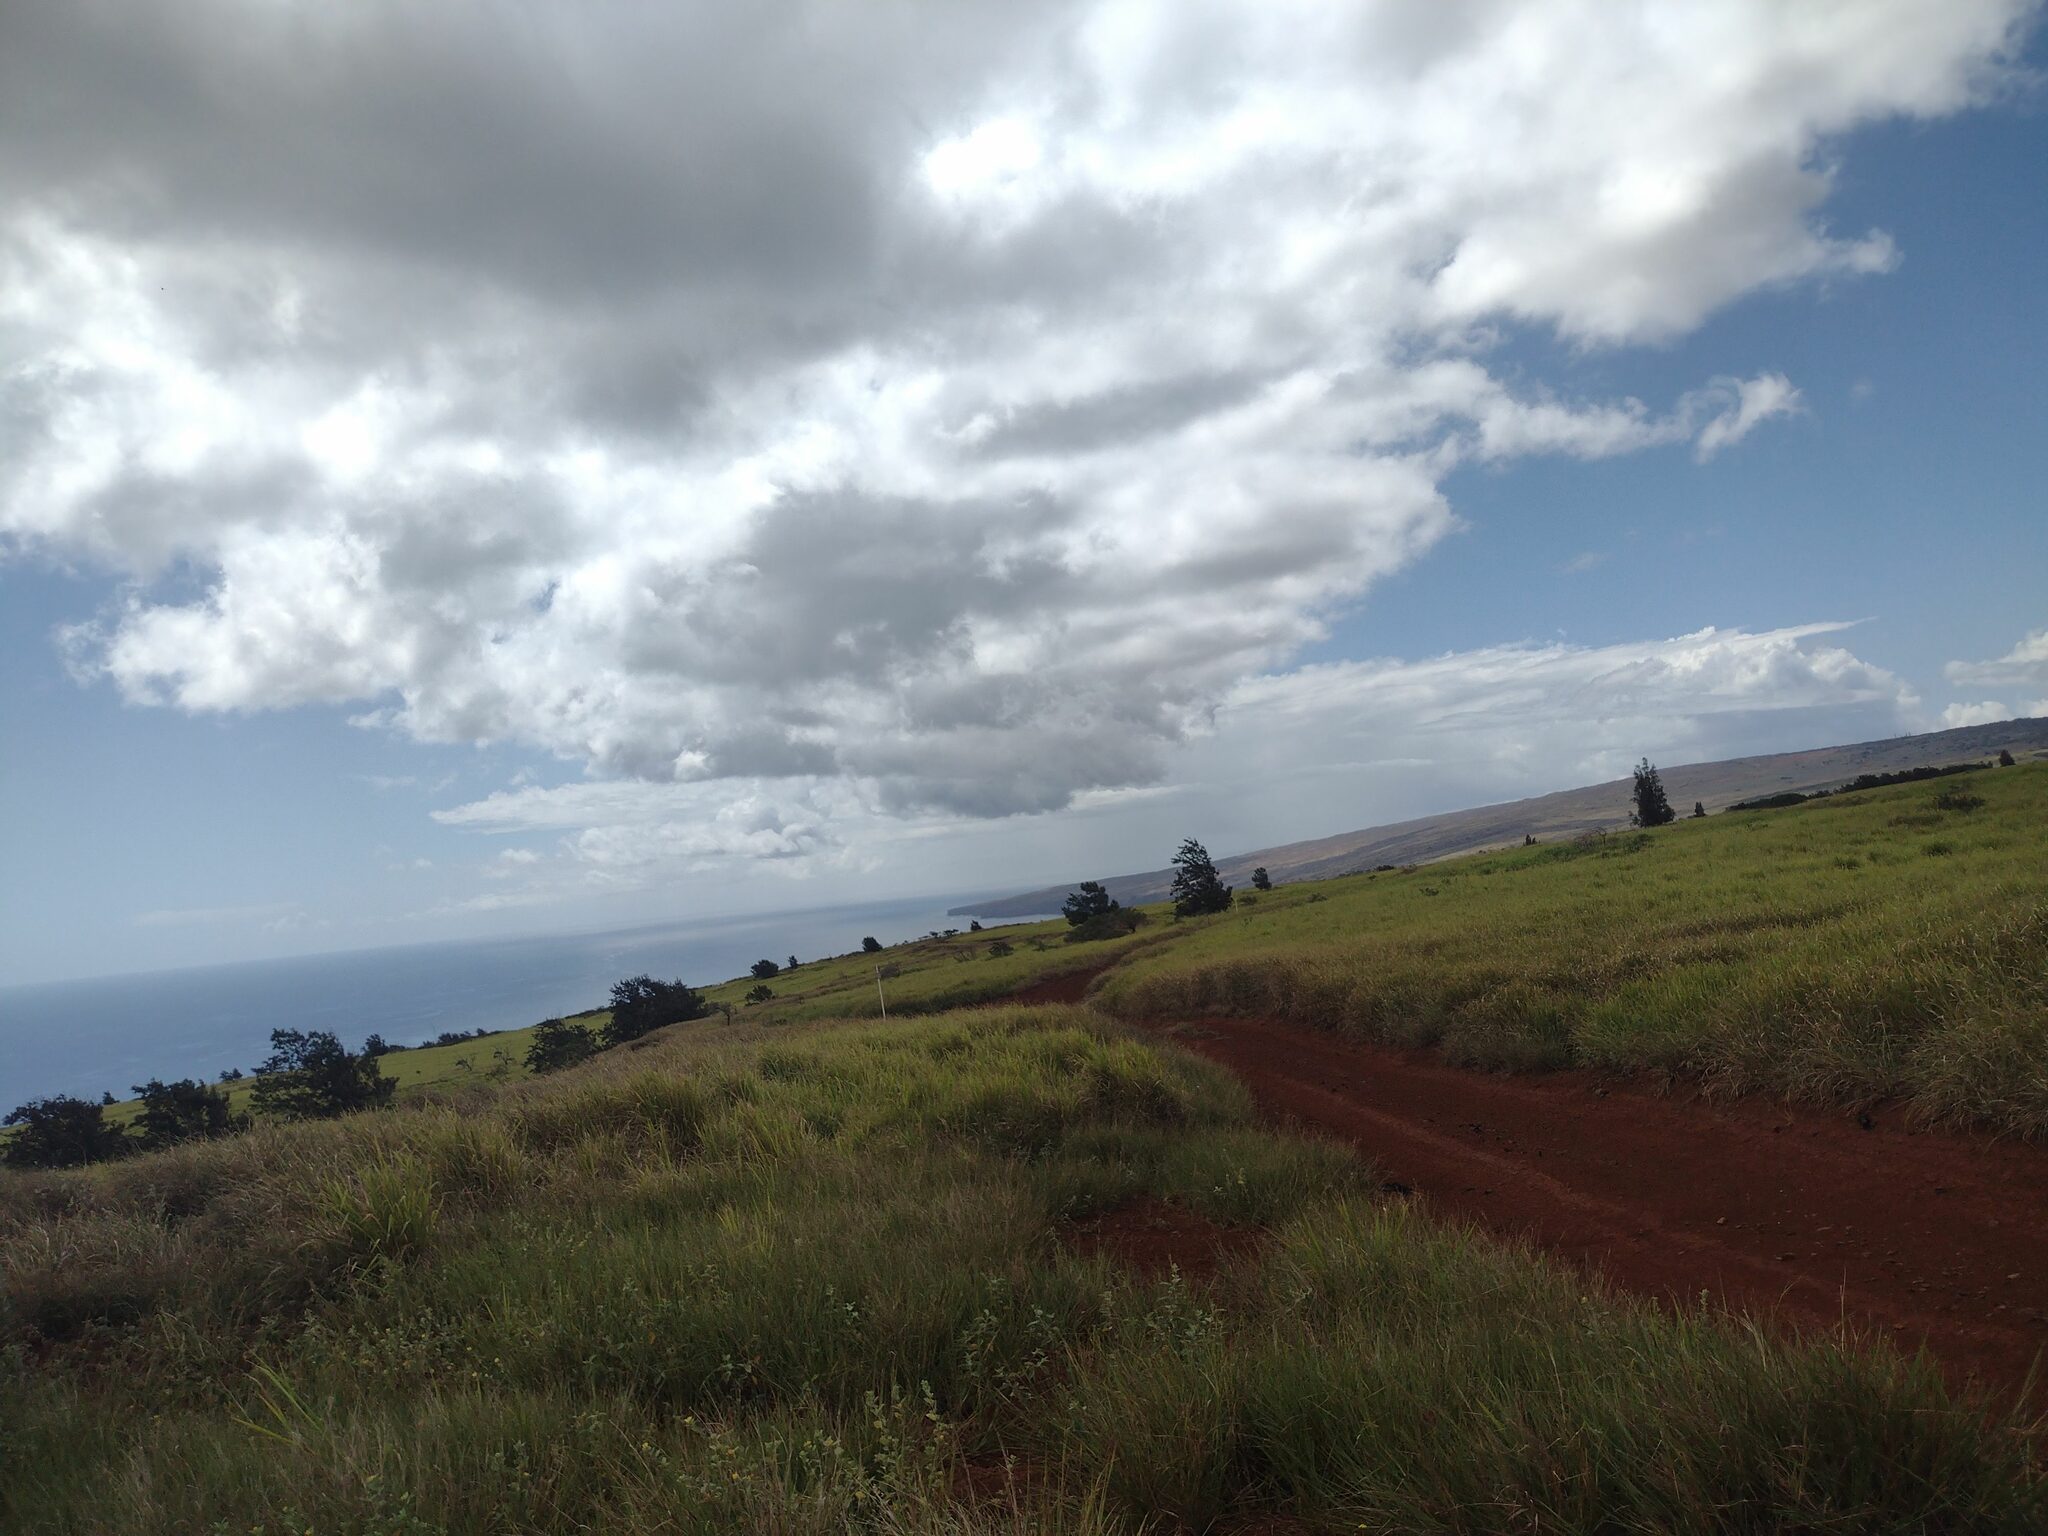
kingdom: Plantae
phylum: Tracheophyta
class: Liliopsida
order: Poales
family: Poaceae
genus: Megathyrsus
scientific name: Megathyrsus maximus
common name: Guineagrass
